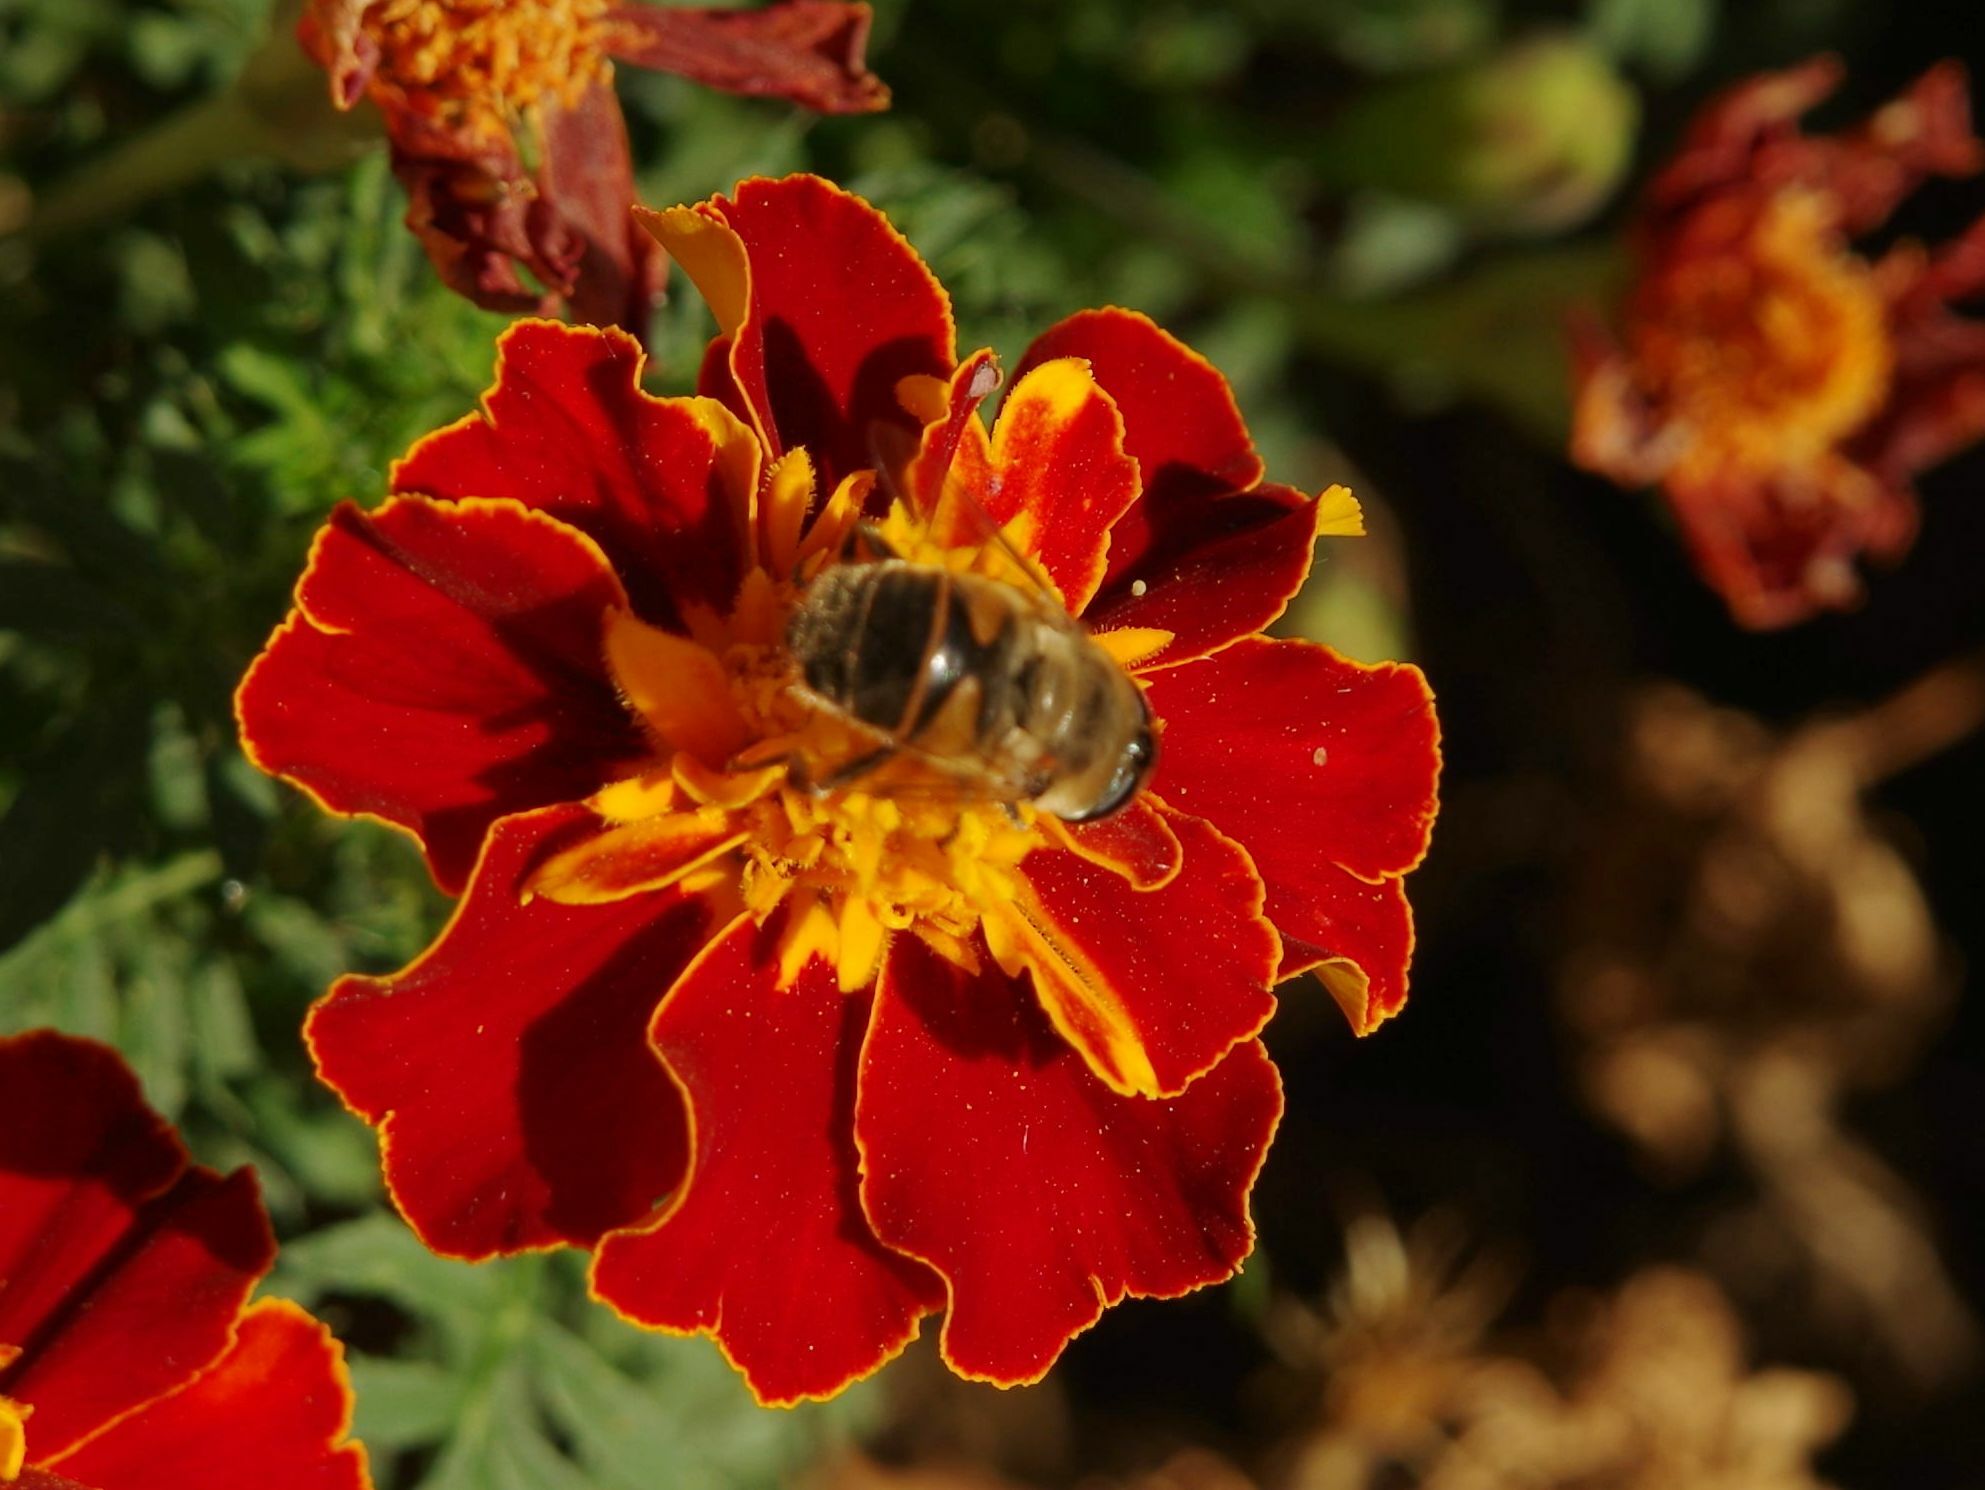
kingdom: Animalia
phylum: Arthropoda
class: Insecta
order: Diptera
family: Syrphidae
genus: Eristalis
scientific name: Eristalis tenax
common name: Drone fly
